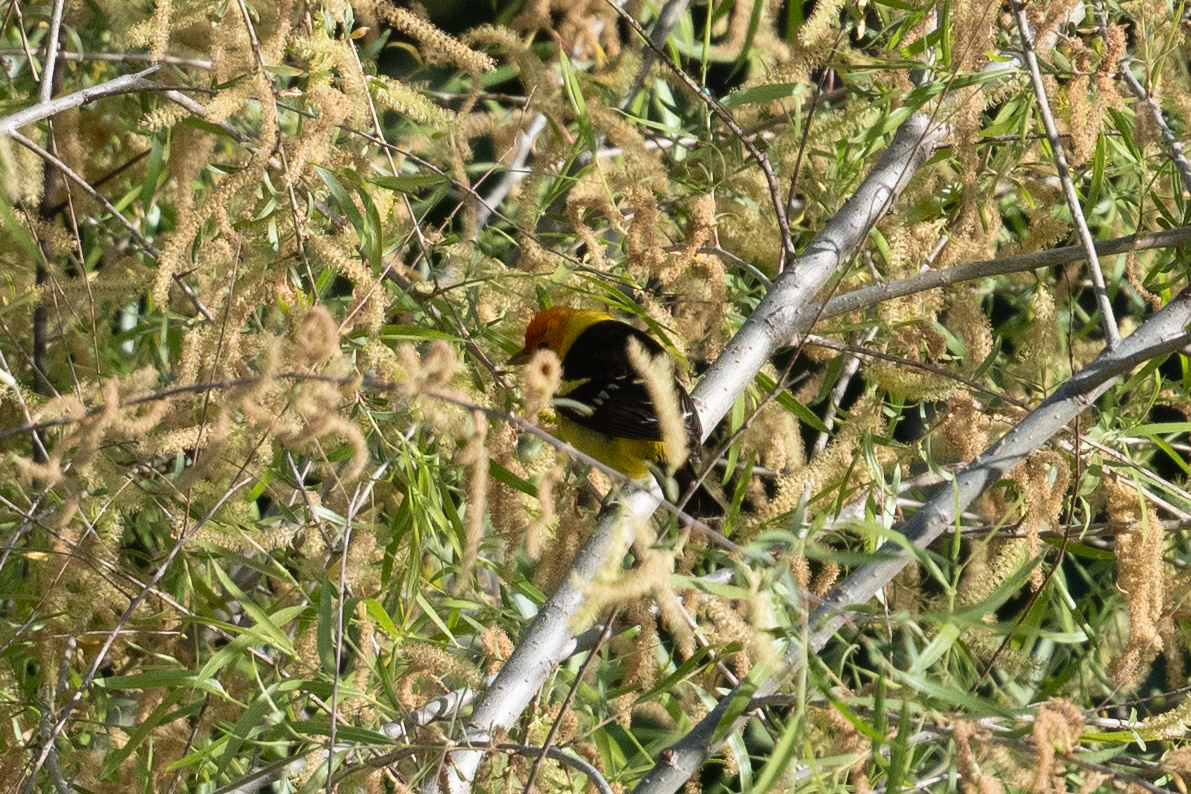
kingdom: Animalia
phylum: Chordata
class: Aves
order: Passeriformes
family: Cardinalidae
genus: Piranga
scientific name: Piranga ludoviciana
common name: Western tanager
